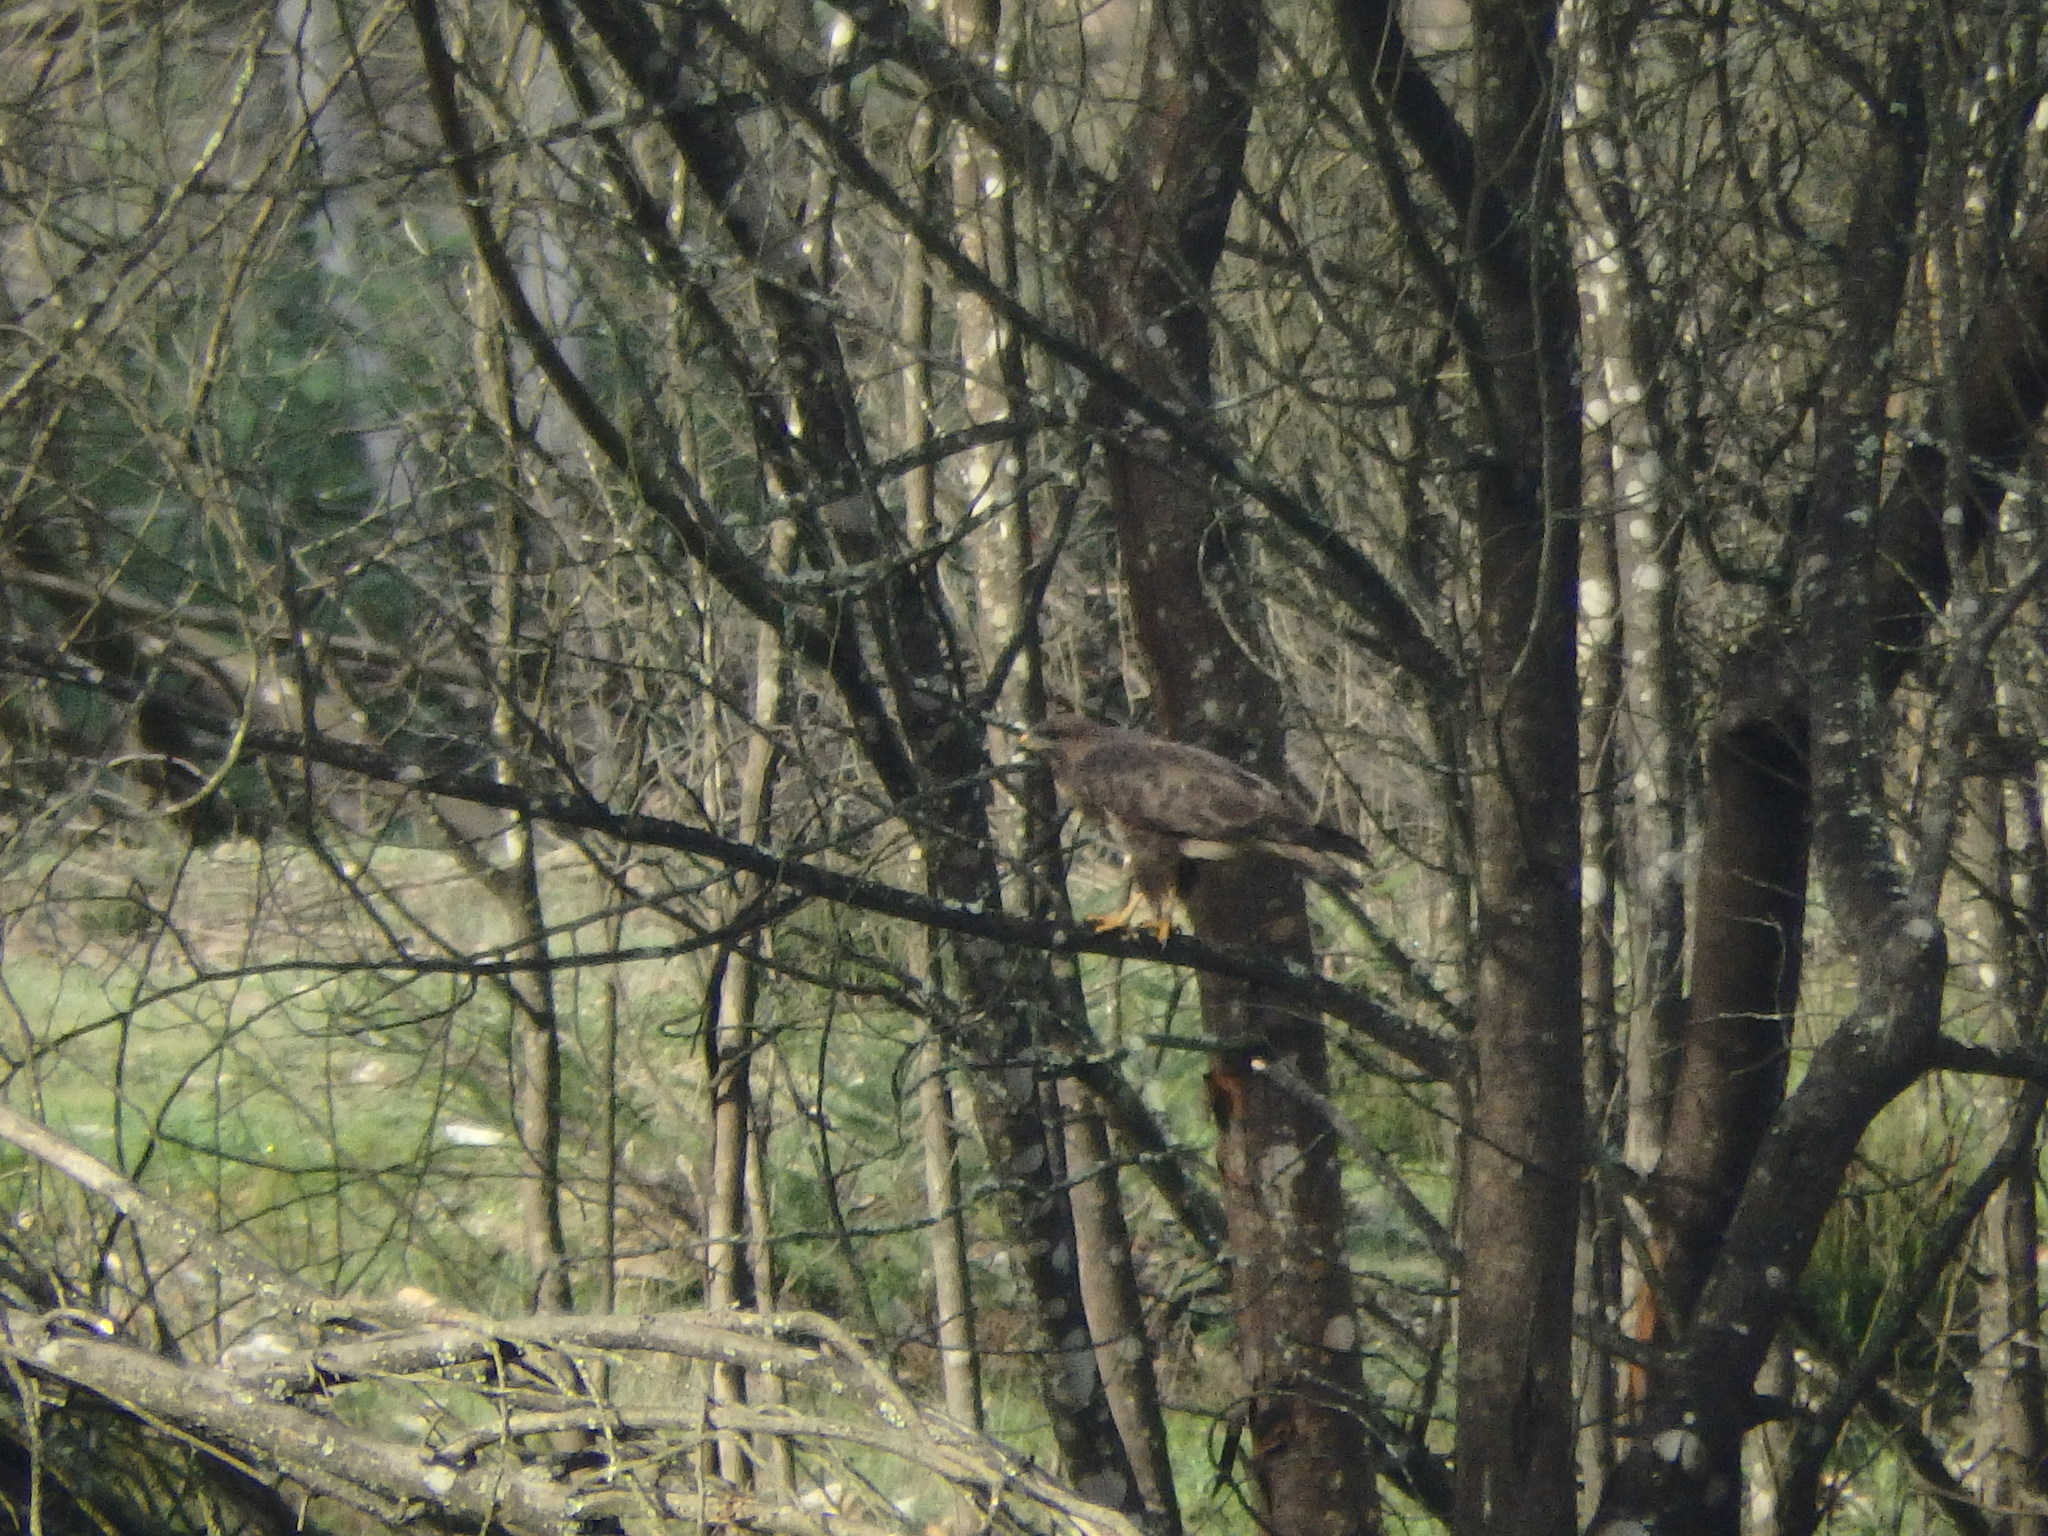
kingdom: Animalia
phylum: Chordata
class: Aves
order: Accipitriformes
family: Accipitridae
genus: Buteo
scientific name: Buteo buteo
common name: Common buzzard
